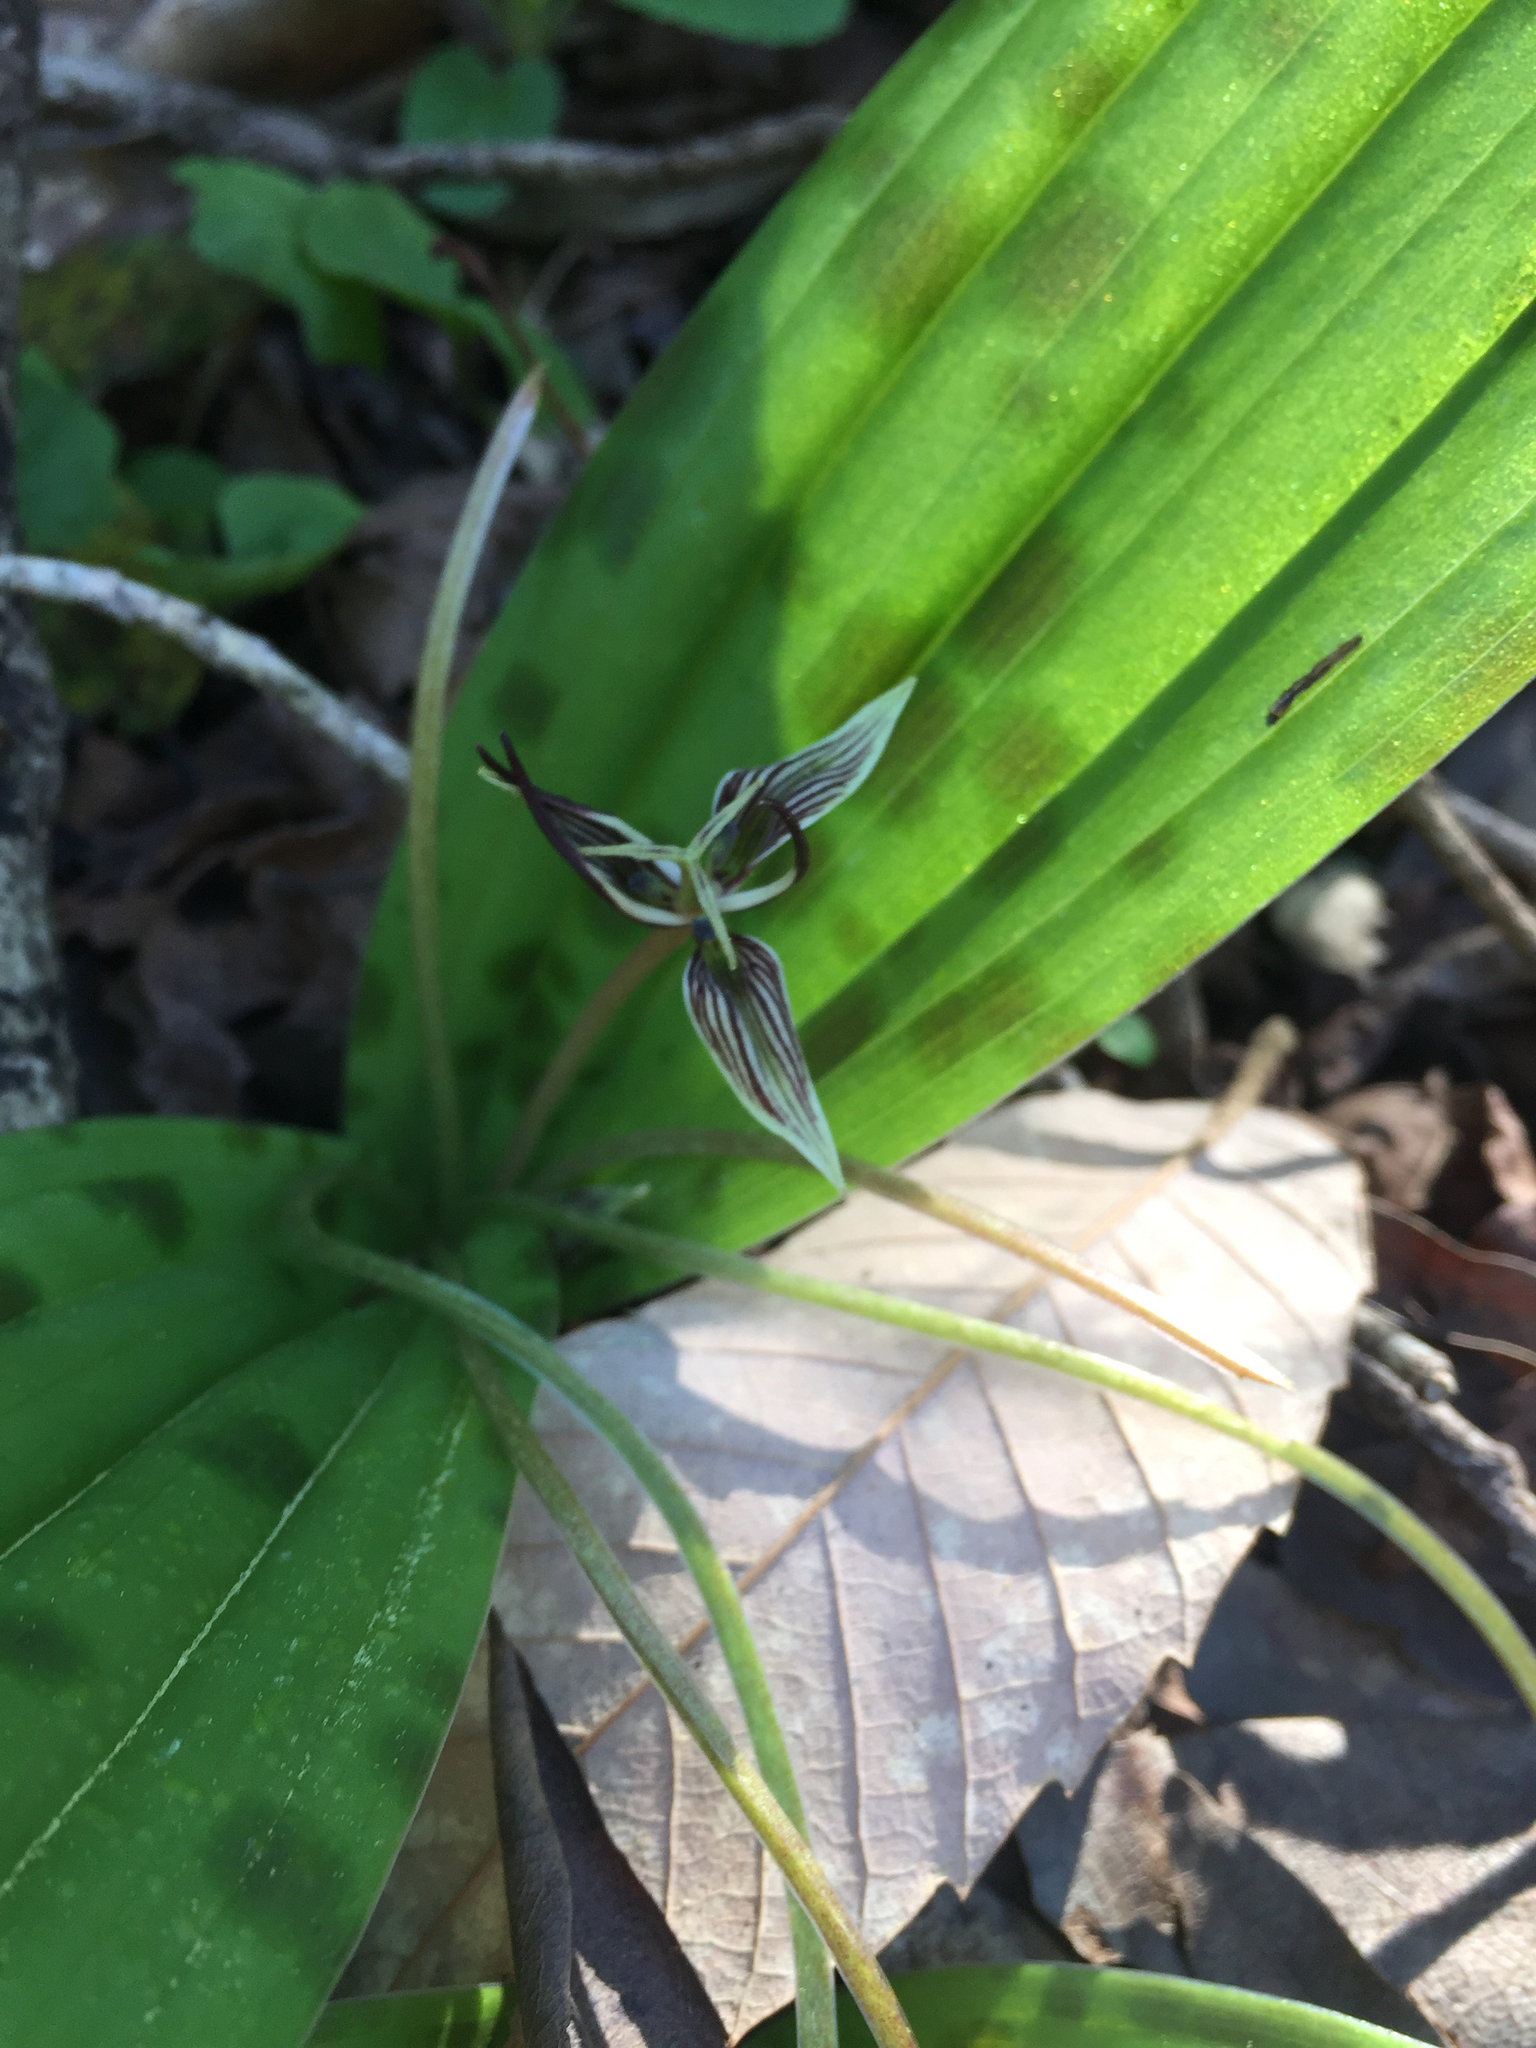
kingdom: Plantae
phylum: Tracheophyta
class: Liliopsida
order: Liliales
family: Liliaceae
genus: Scoliopus
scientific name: Scoliopus bigelovii
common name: Foetid adder's-tongue
